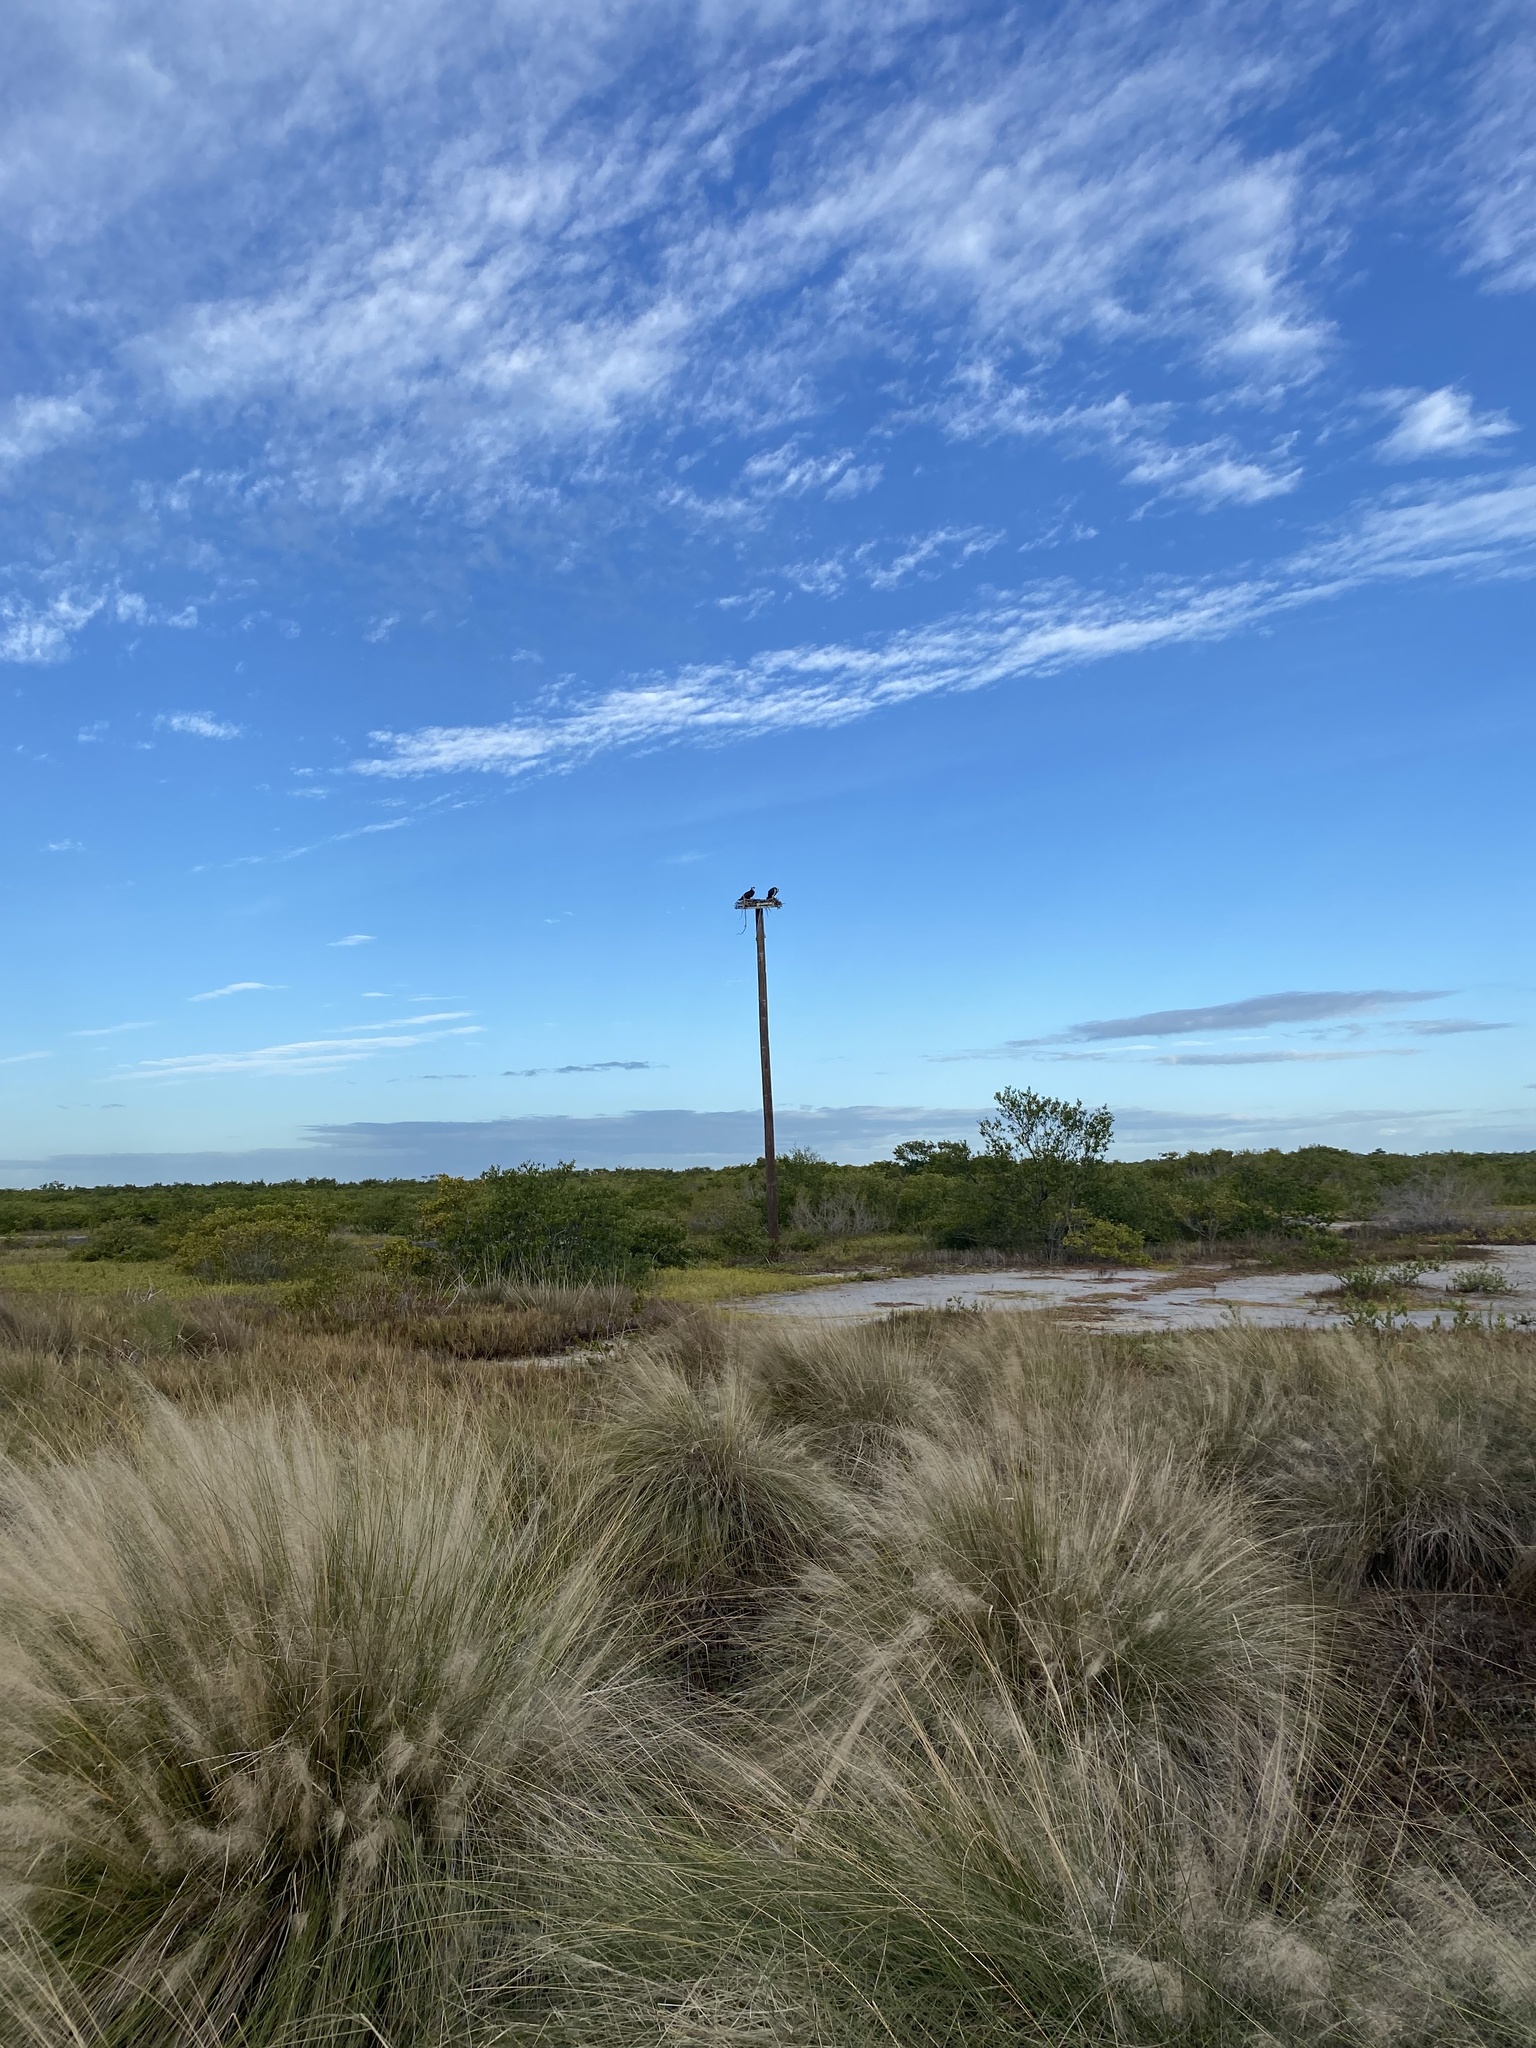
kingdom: Animalia
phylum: Chordata
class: Aves
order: Accipitriformes
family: Pandionidae
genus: Pandion
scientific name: Pandion haliaetus
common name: Osprey
